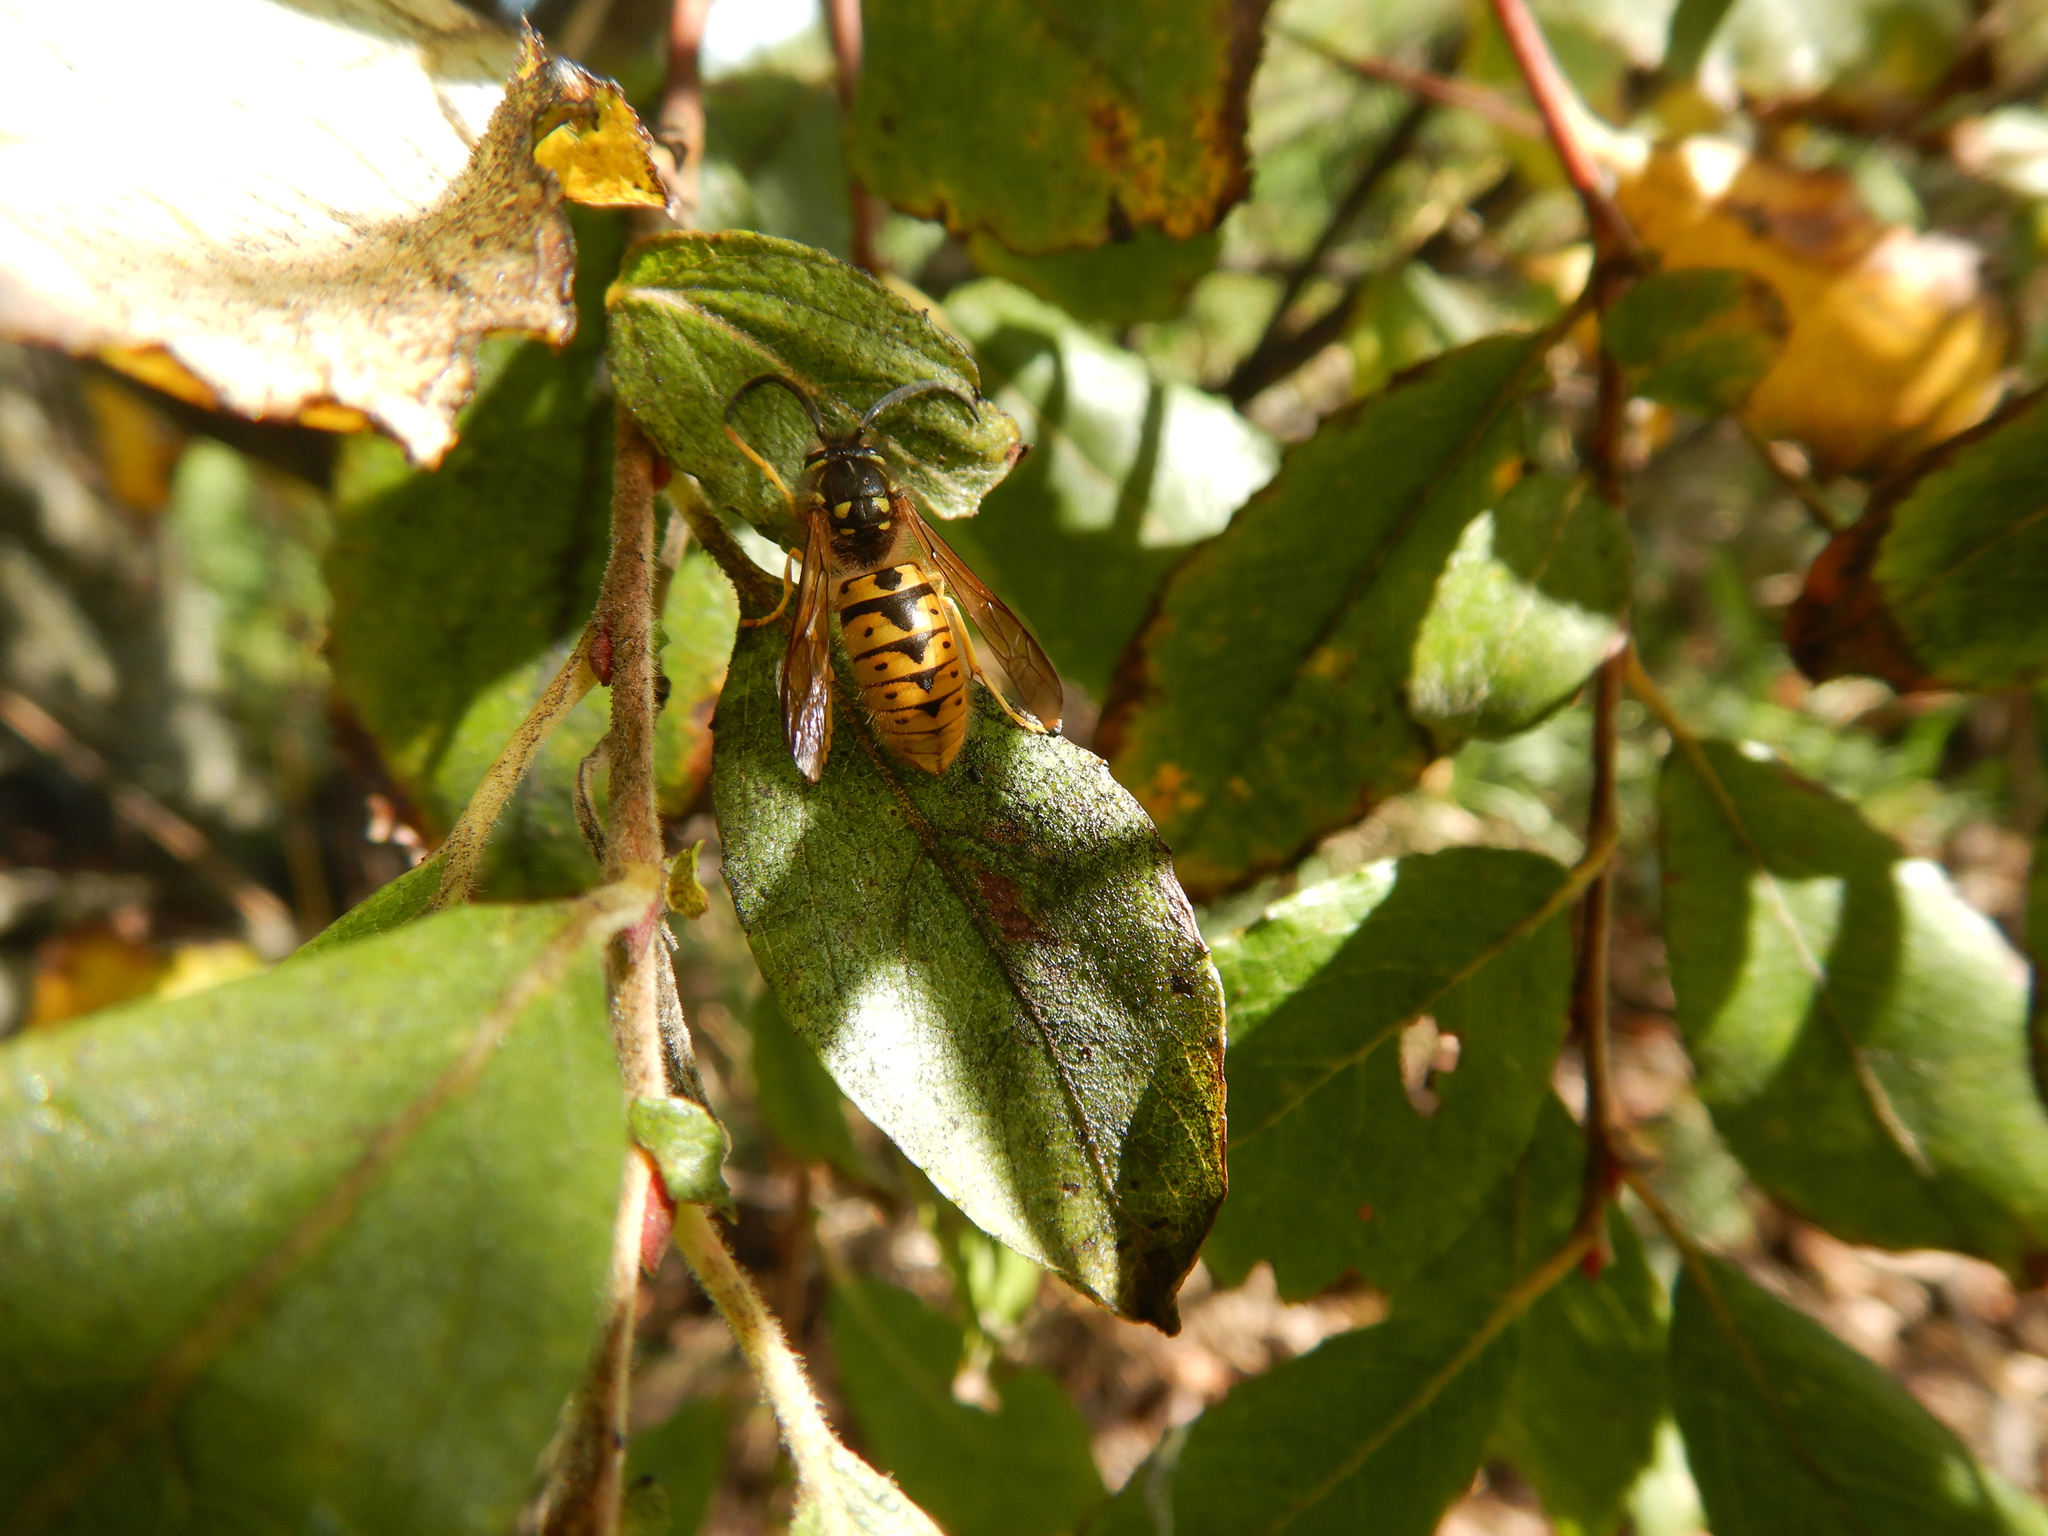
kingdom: Animalia
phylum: Arthropoda
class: Insecta
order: Hymenoptera
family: Vespidae
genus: Vespula
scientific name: Vespula germanica
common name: German wasp
